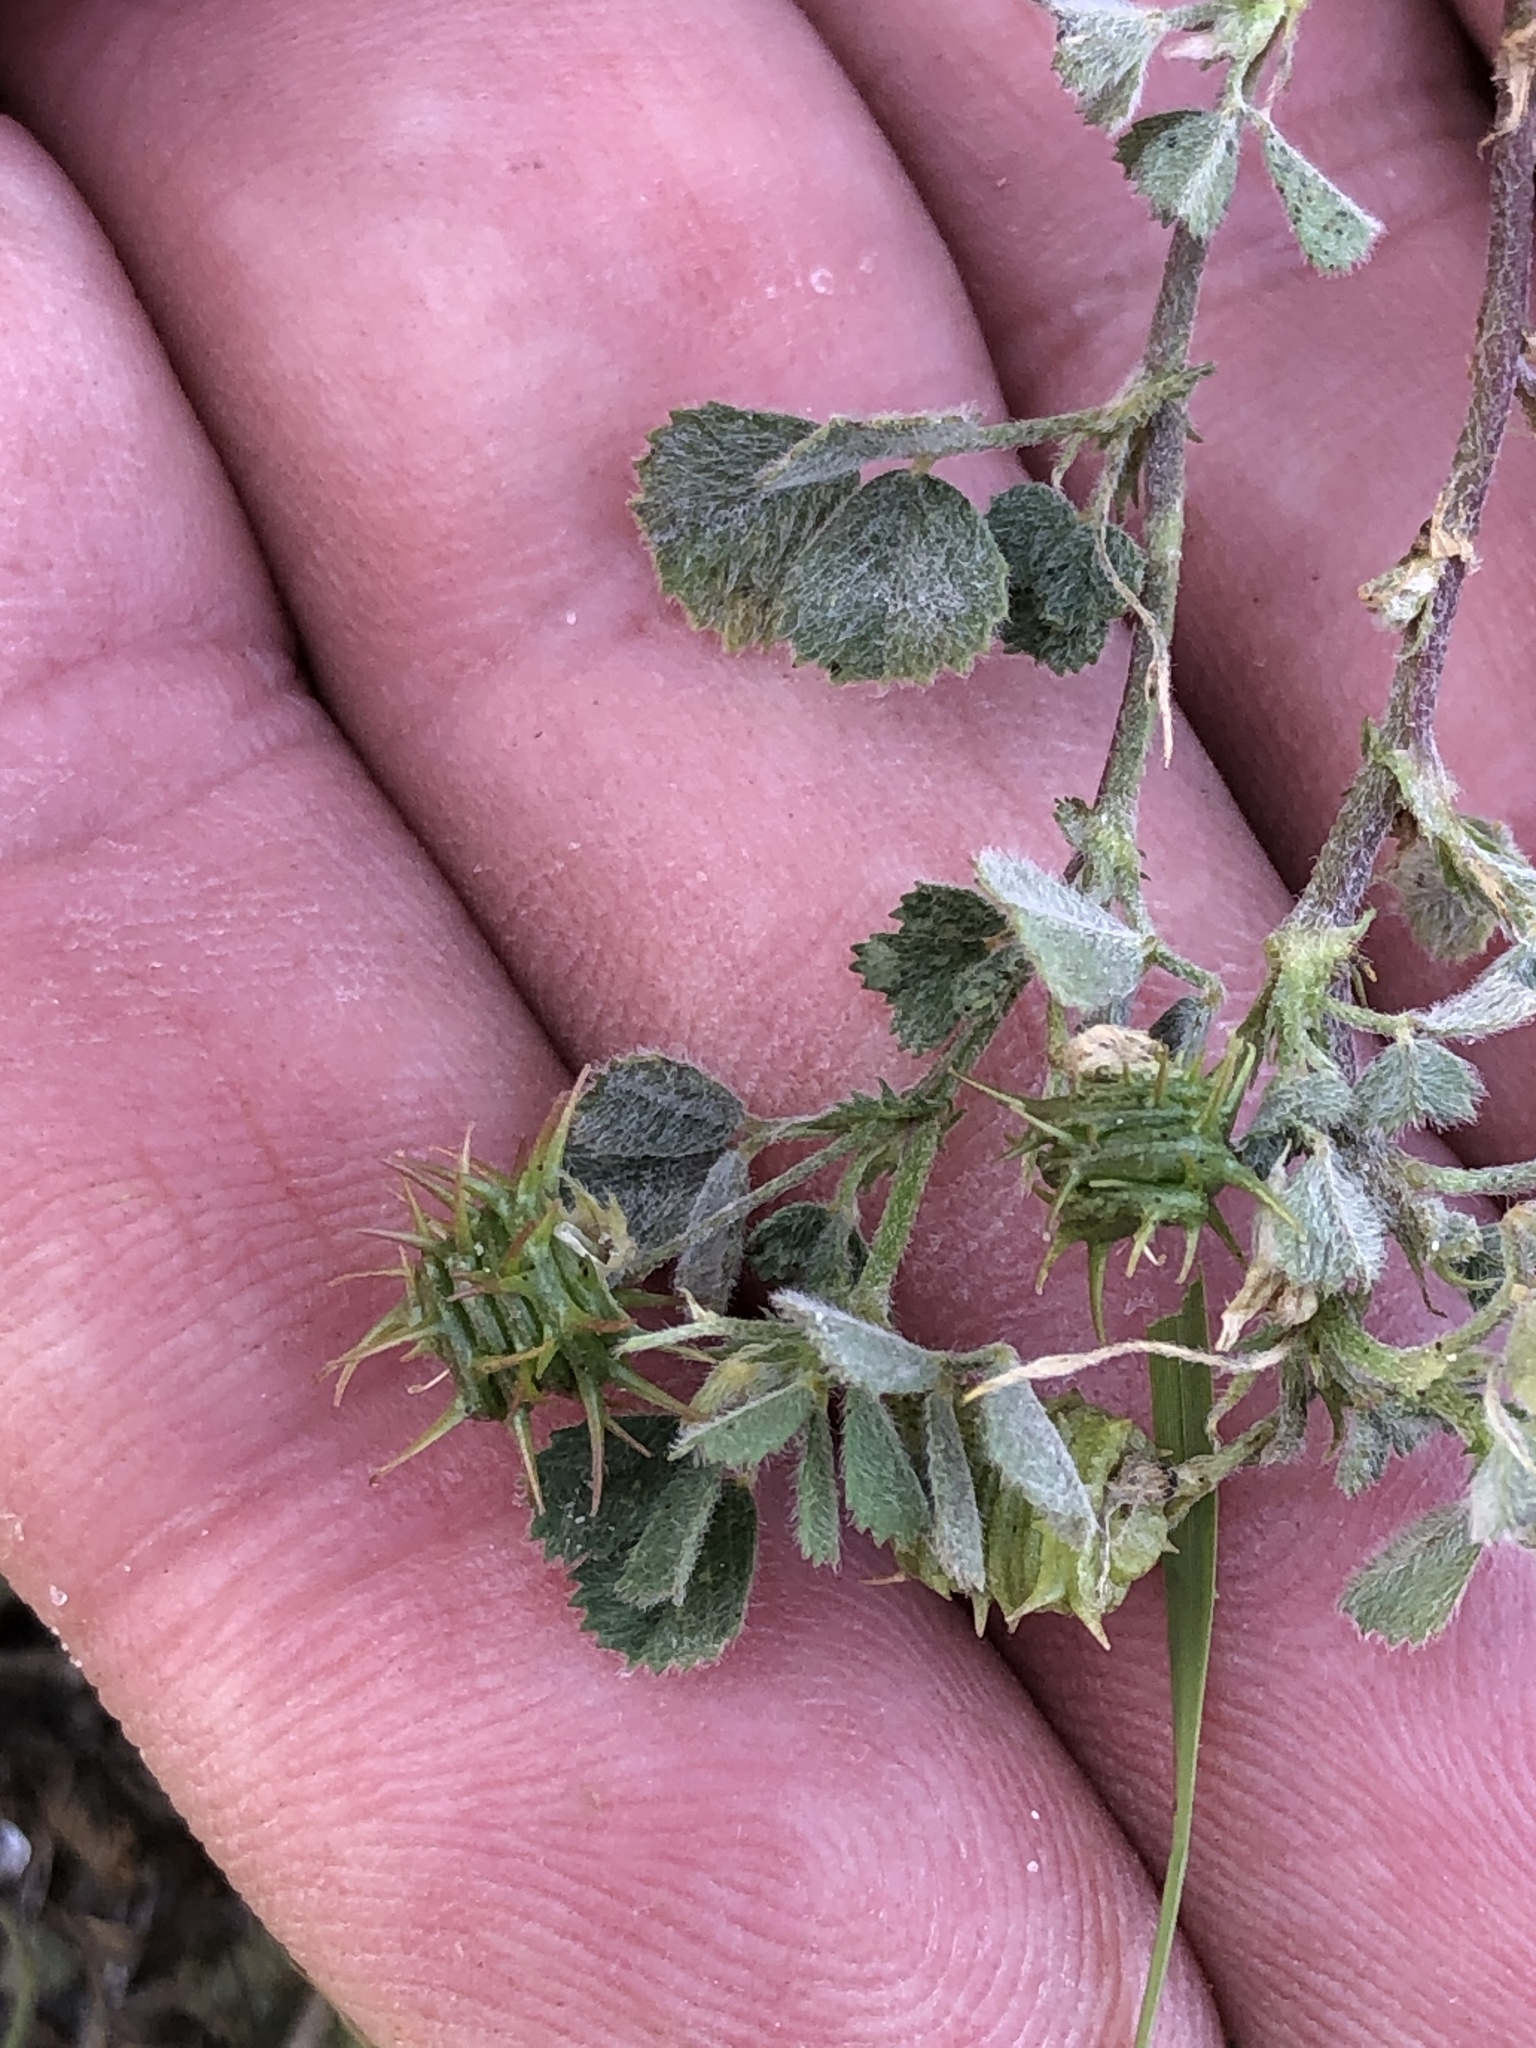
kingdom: Plantae
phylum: Tracheophyta
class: Magnoliopsida
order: Fabales
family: Fabaceae
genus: Medicago
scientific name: Medicago littoralis
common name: Shore medick
